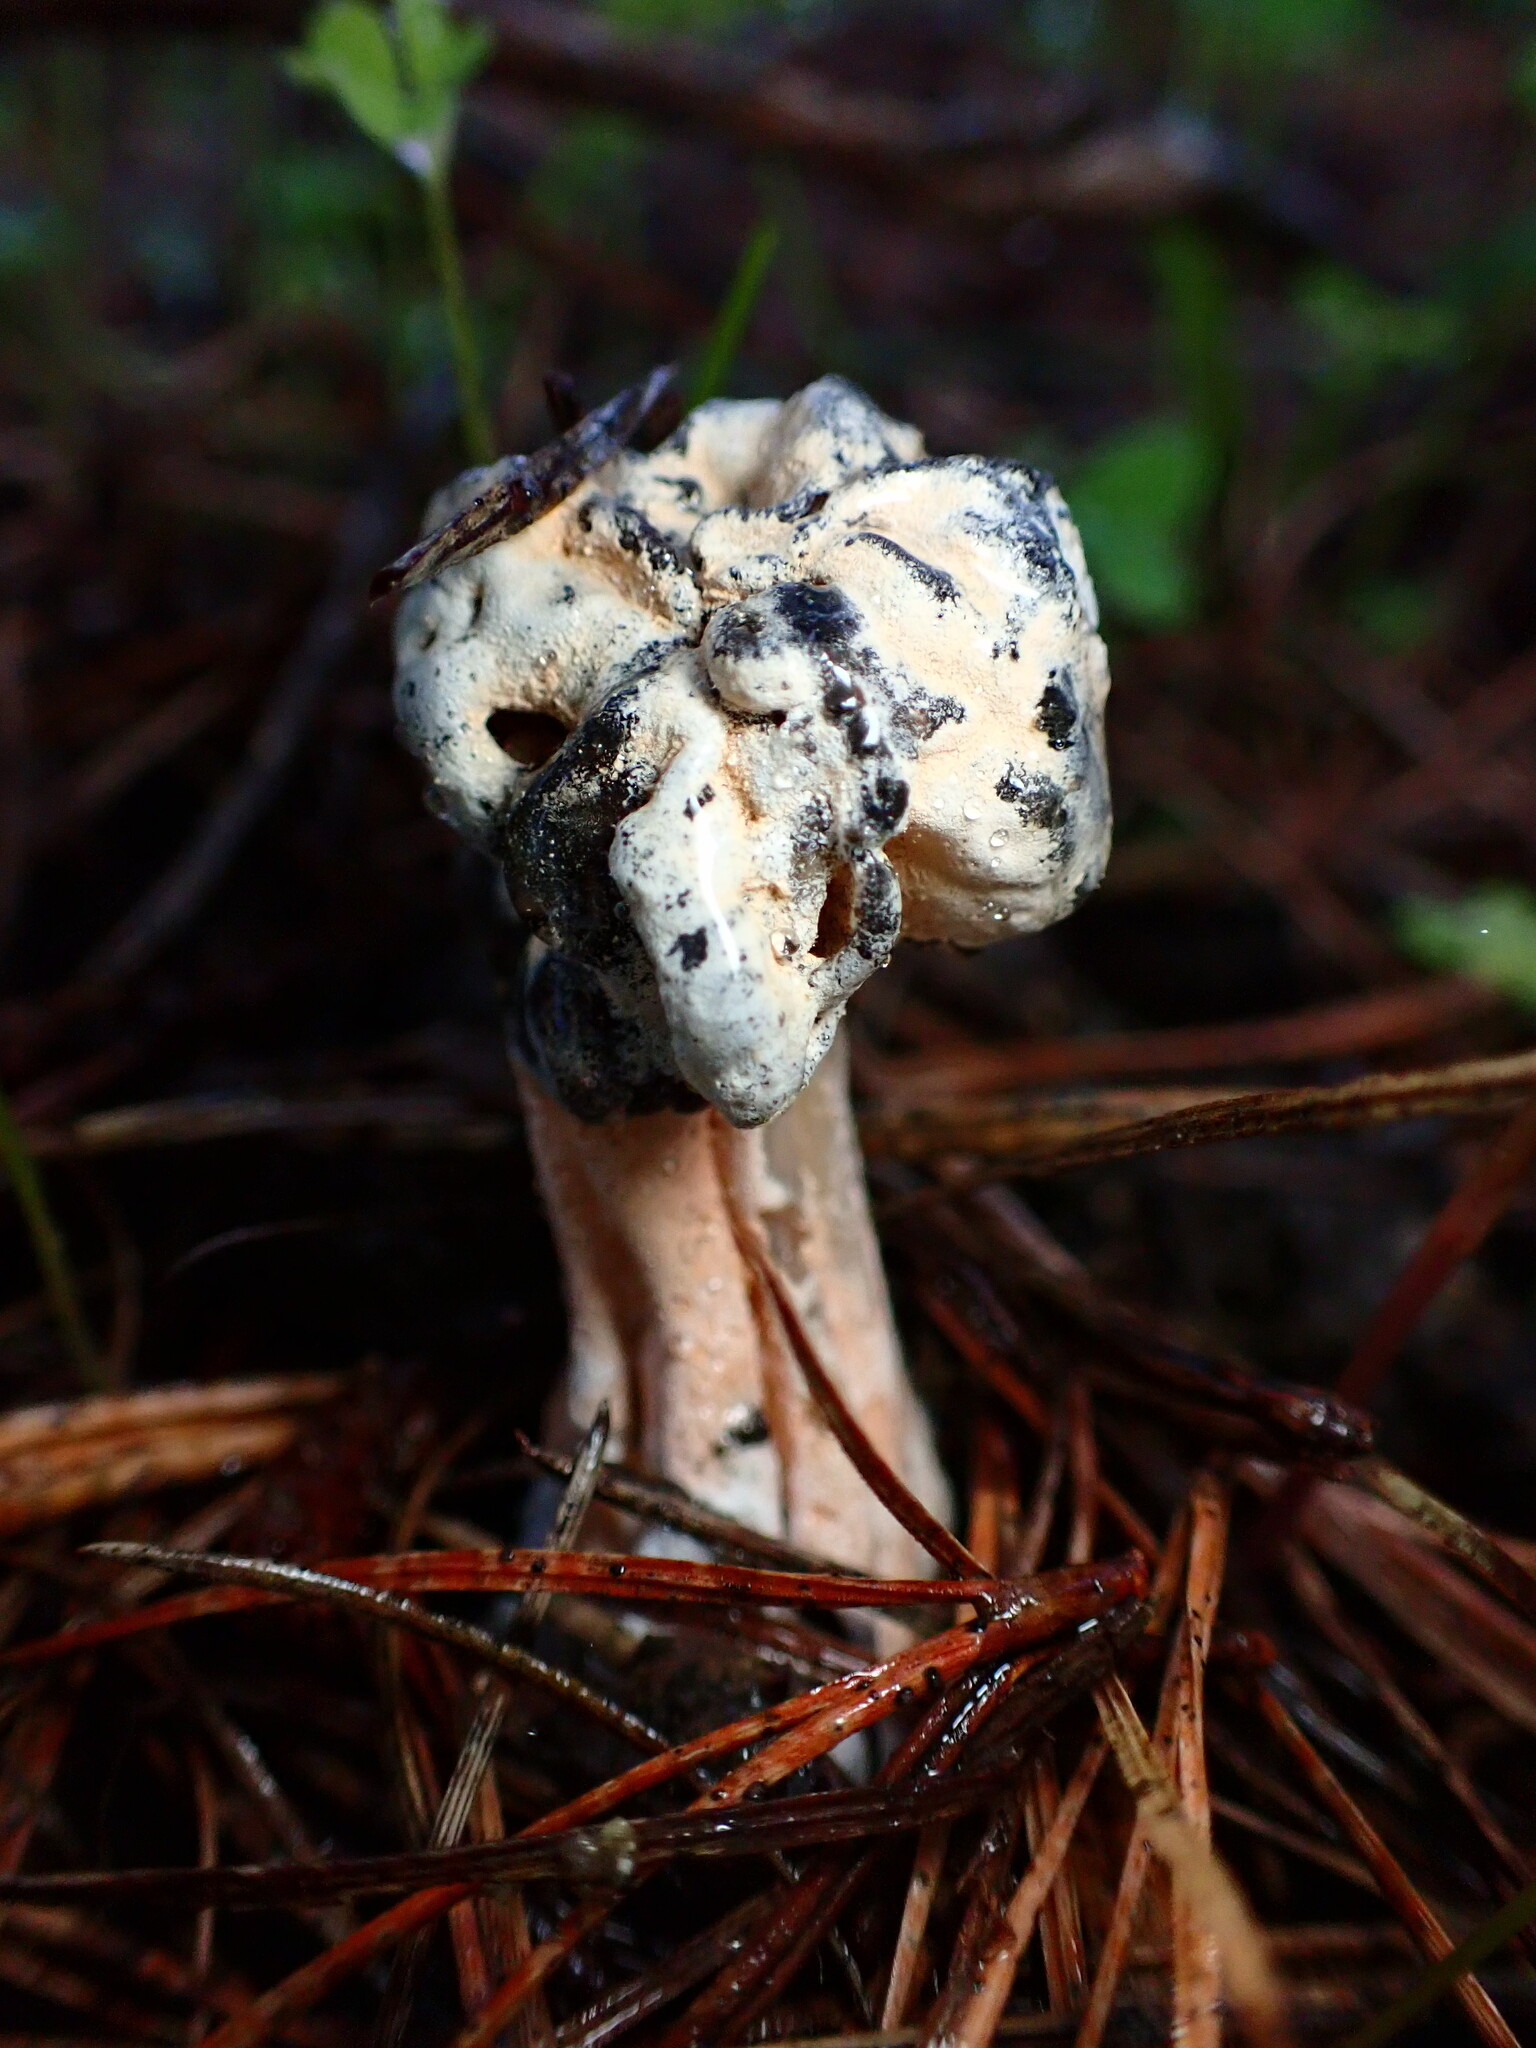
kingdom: Fungi
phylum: Ascomycota
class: Sordariomycetes
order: Hypocreales
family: Hypocreaceae
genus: Hypomyces
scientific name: Hypomyces cervinus
